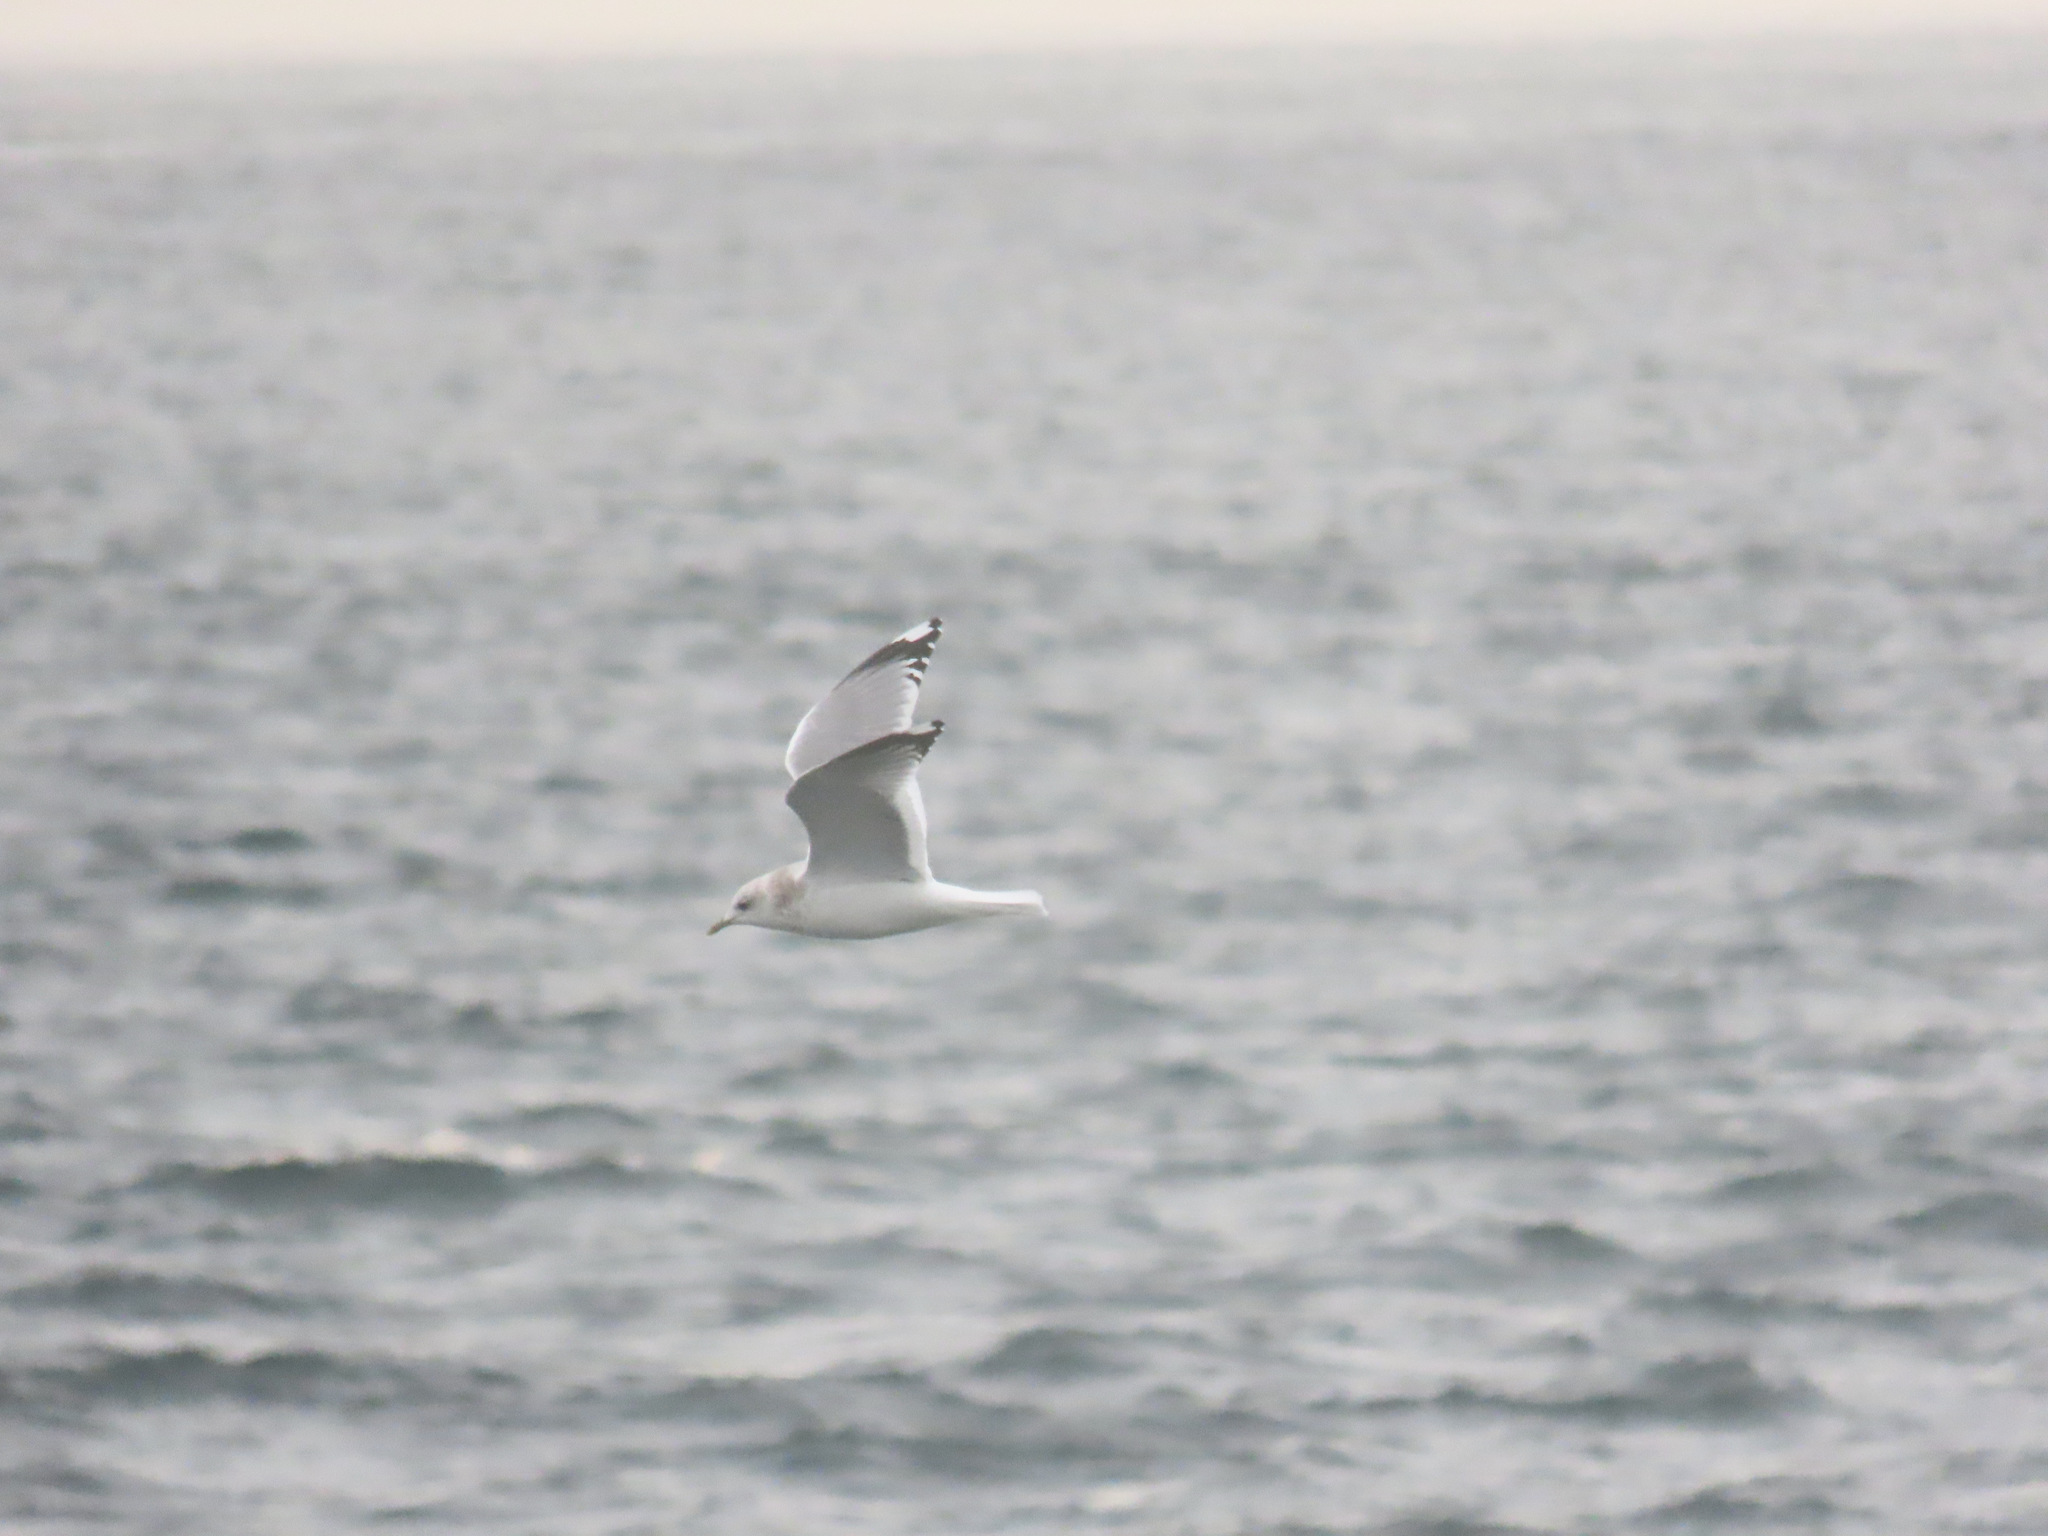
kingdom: Animalia
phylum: Chordata
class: Aves
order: Charadriiformes
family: Laridae
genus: Larus
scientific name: Larus brachyrhynchus
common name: Short-billed gull
